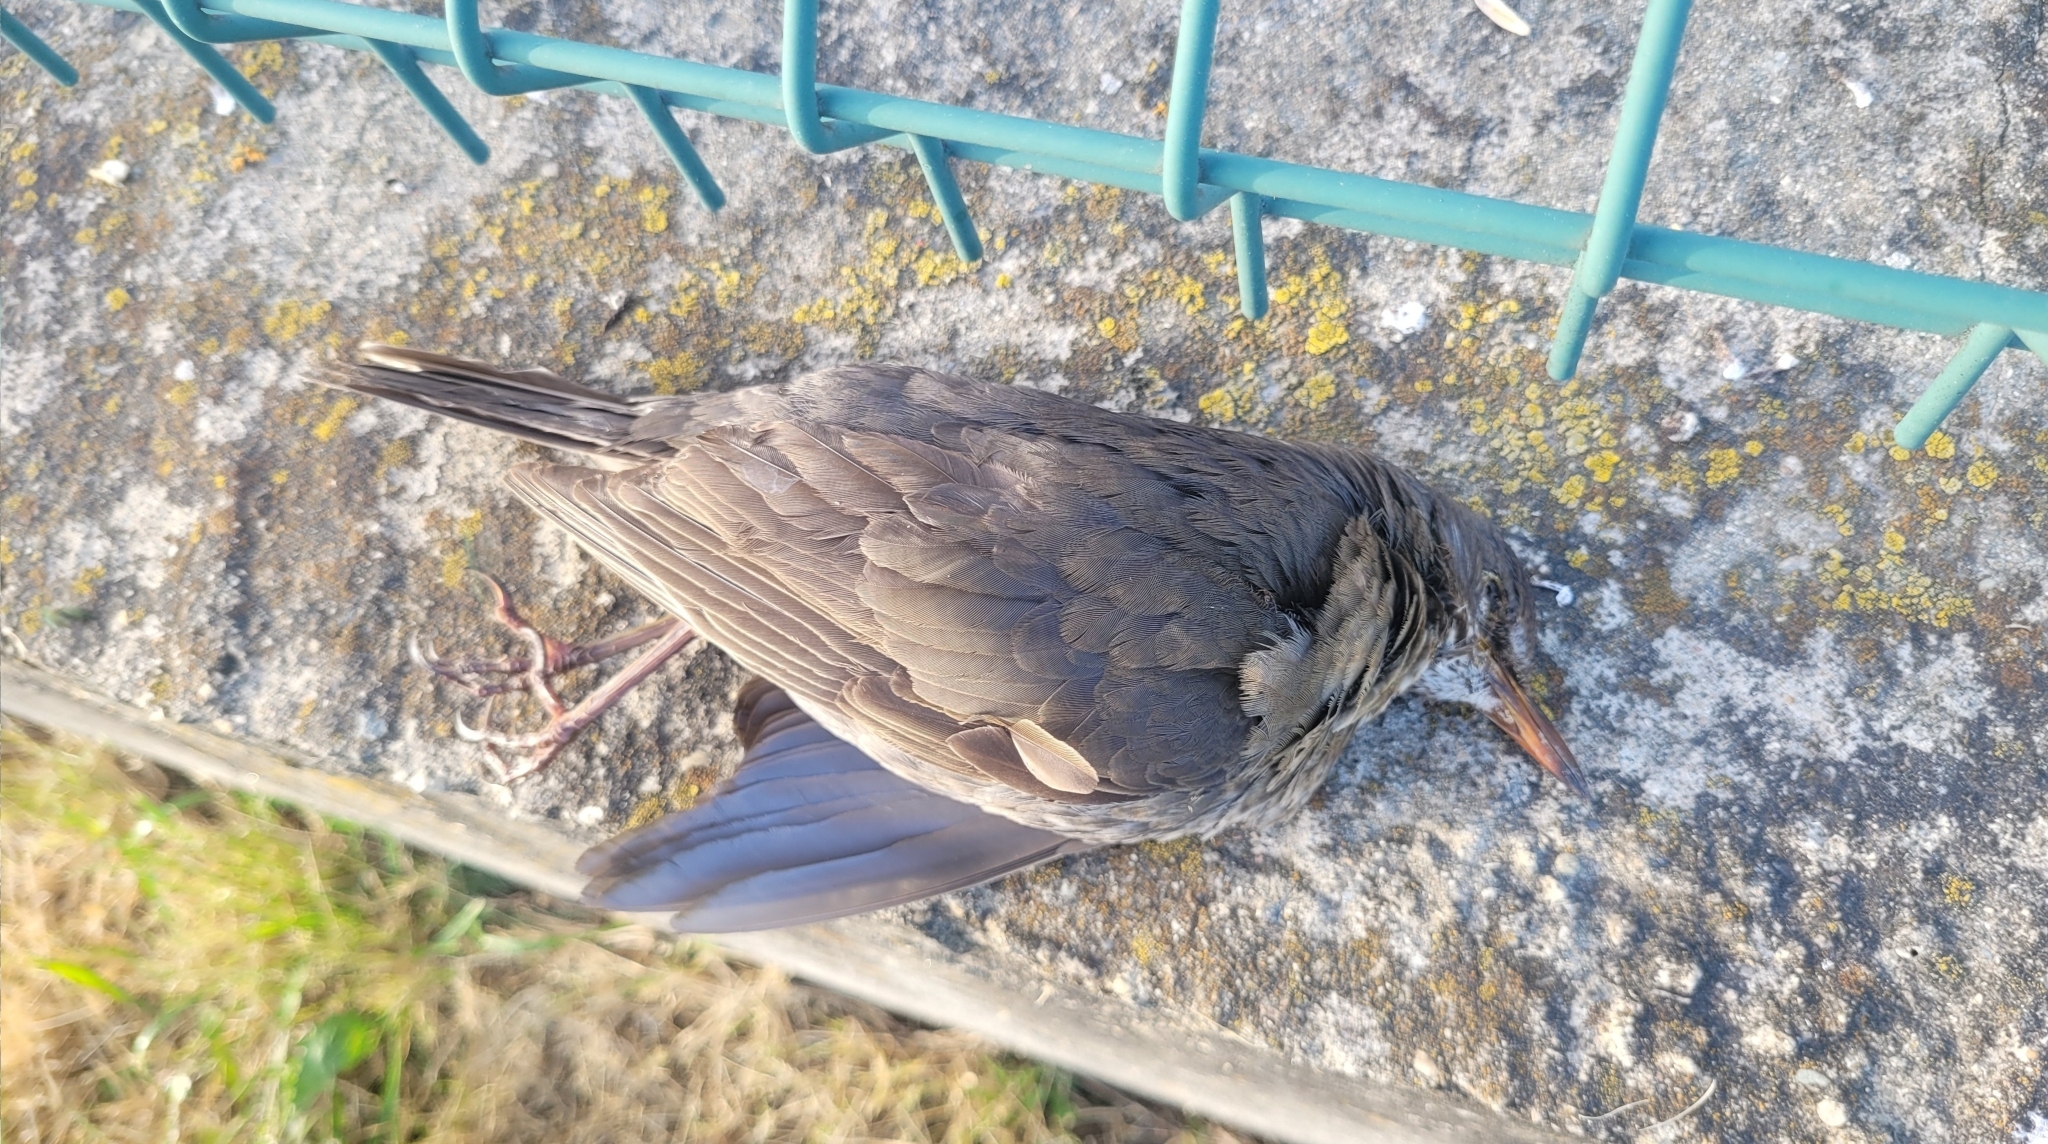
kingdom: Animalia
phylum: Chordata
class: Aves
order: Passeriformes
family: Turdidae
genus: Turdus
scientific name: Turdus merula
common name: Common blackbird
